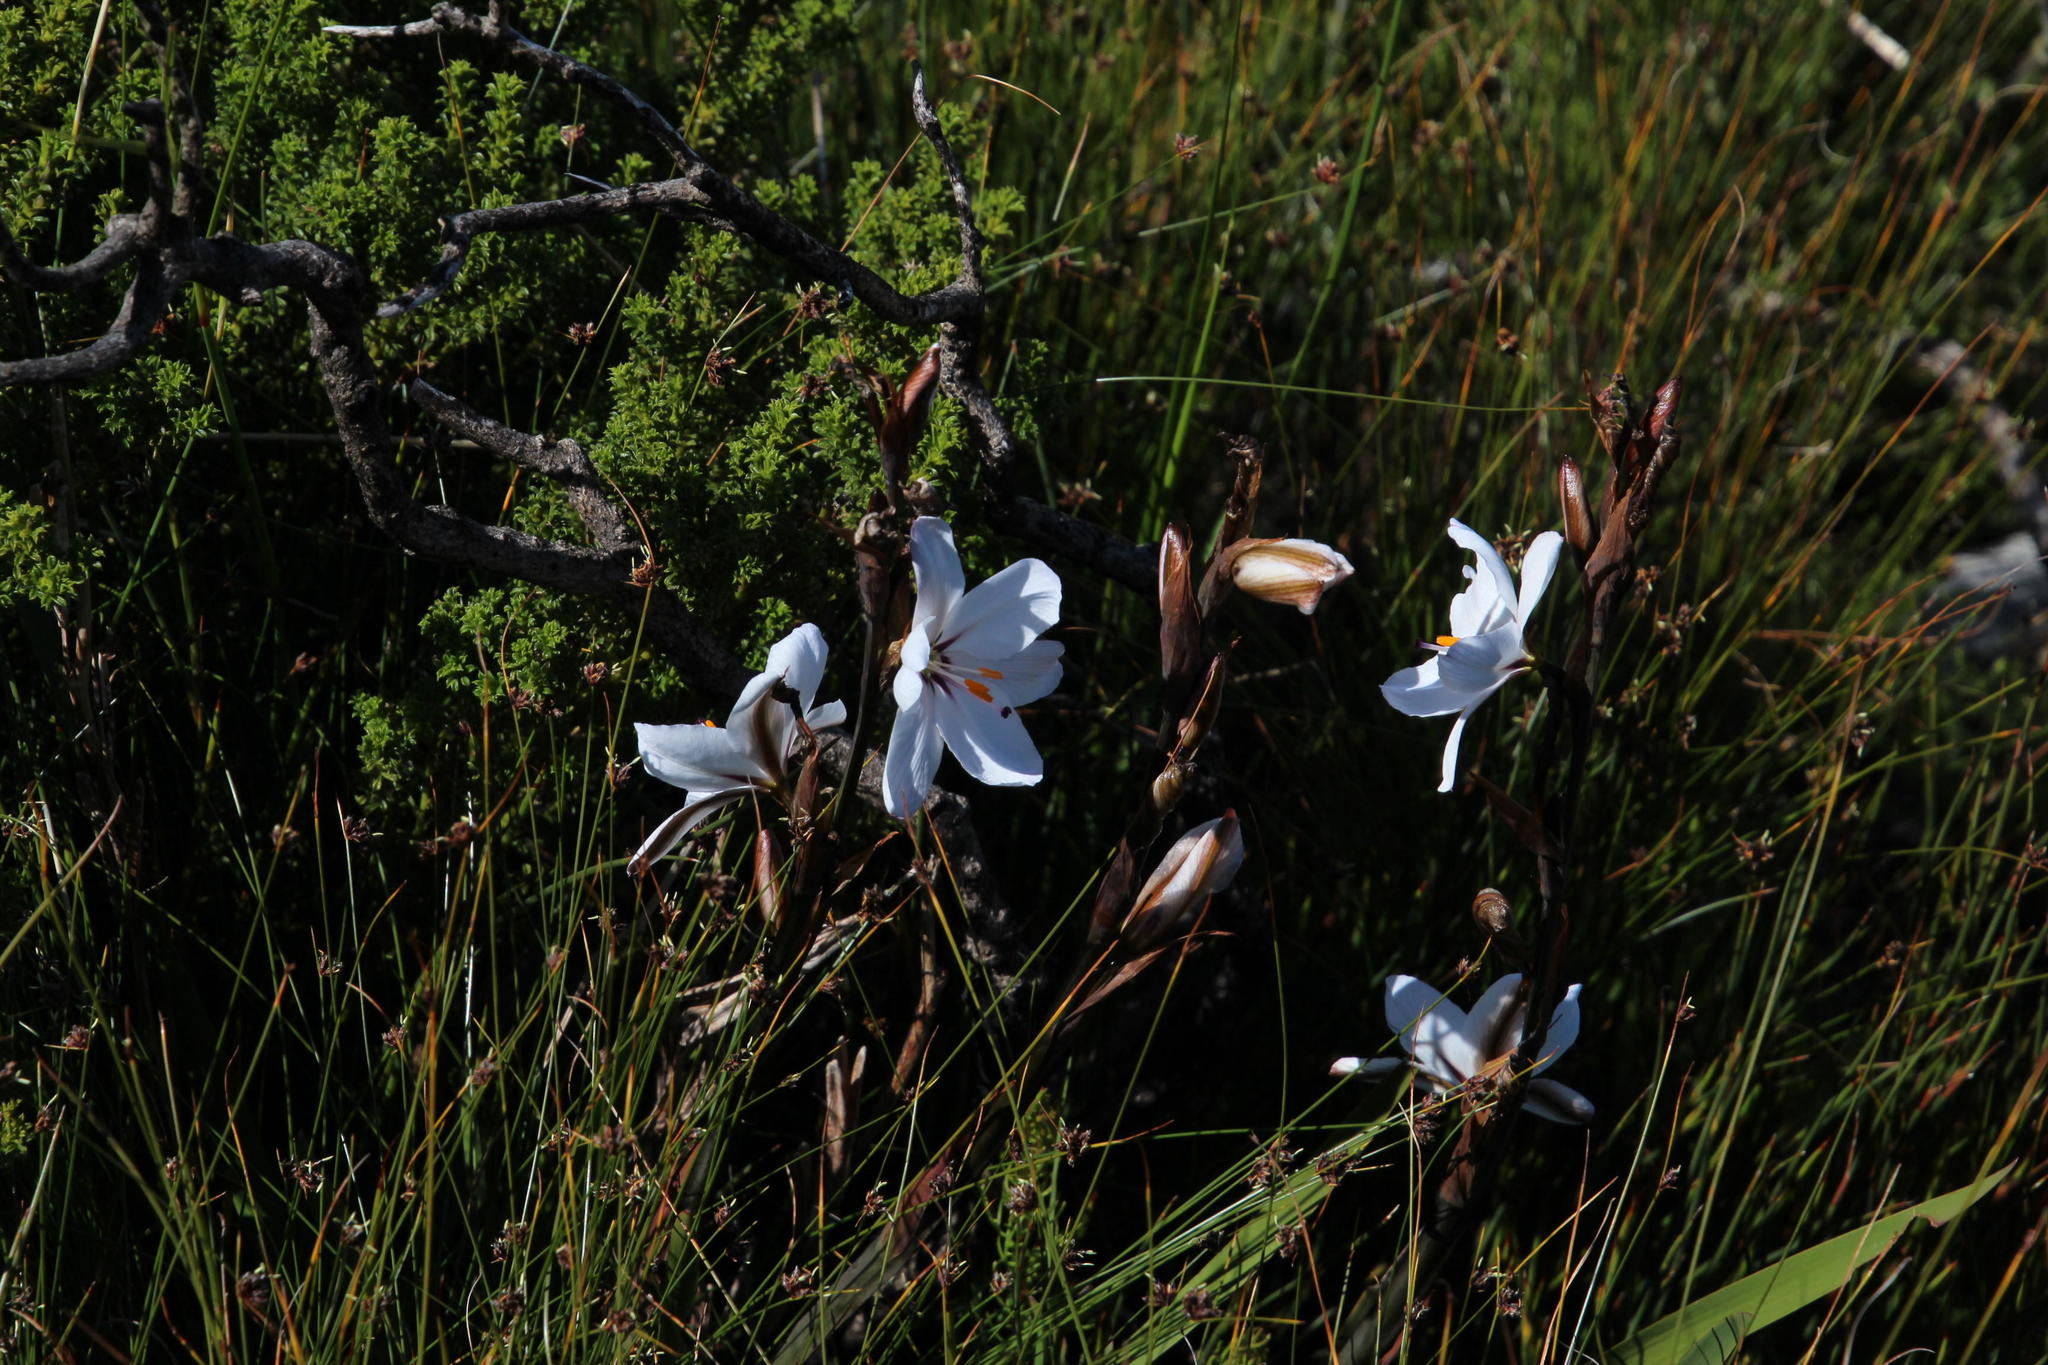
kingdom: Plantae
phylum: Tracheophyta
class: Liliopsida
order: Asparagales
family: Iridaceae
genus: Aristea
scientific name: Aristea spiralis
